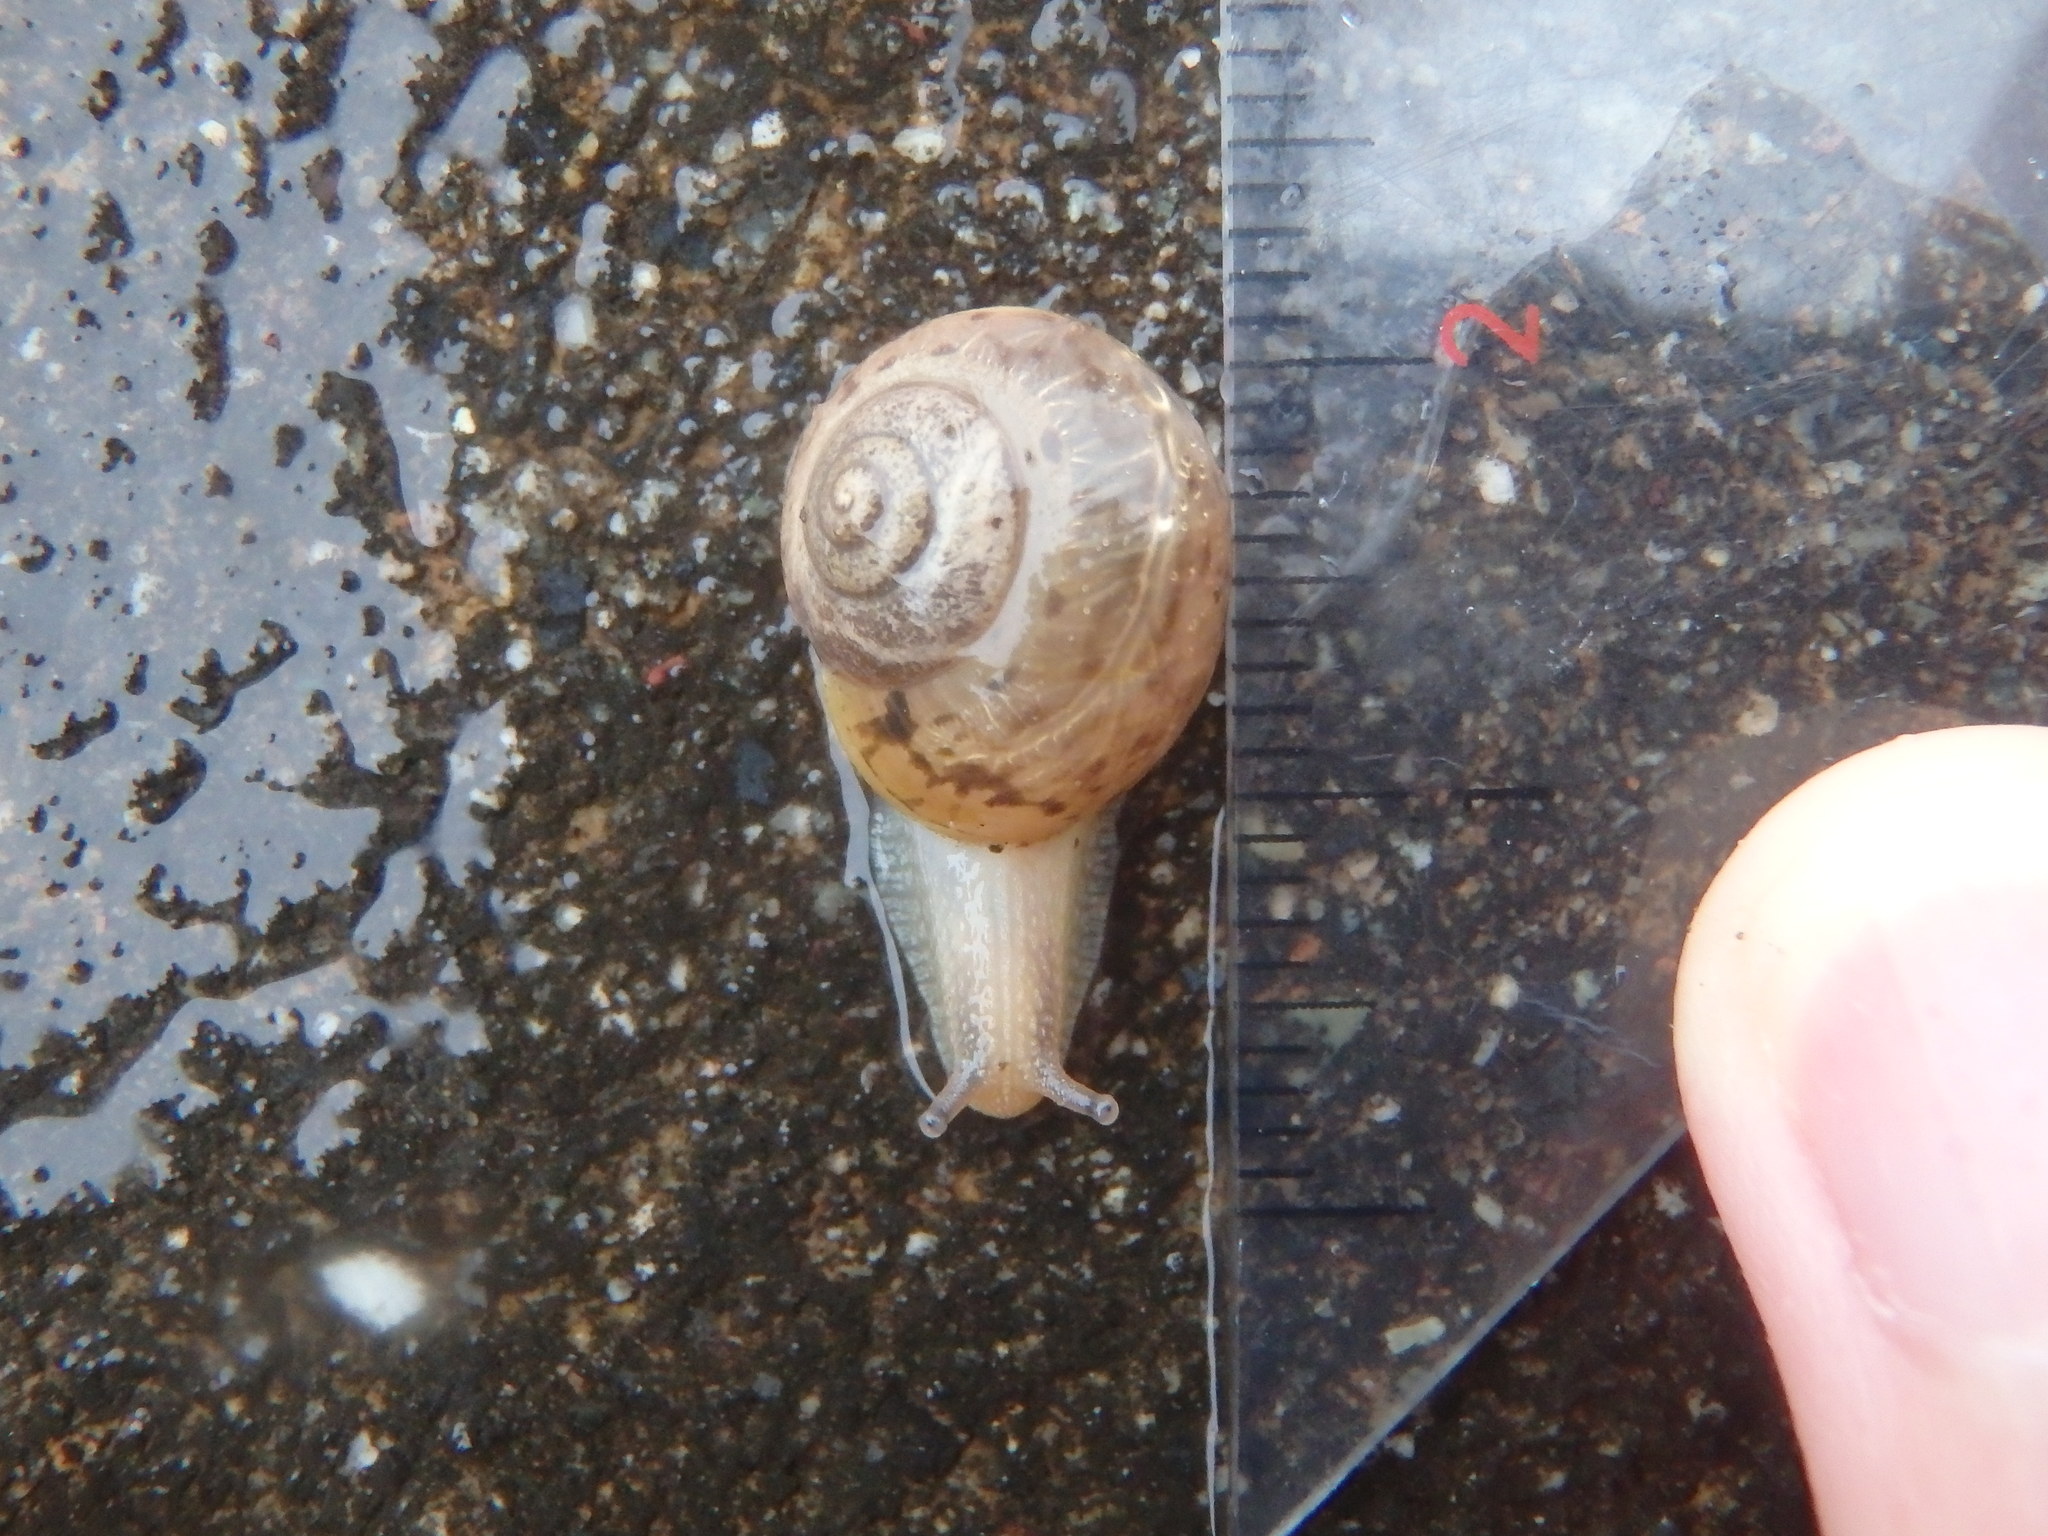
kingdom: Animalia
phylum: Mollusca
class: Gastropoda
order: Stylommatophora
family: Camaenidae
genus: Acusta
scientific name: Acusta sieboldtiana
